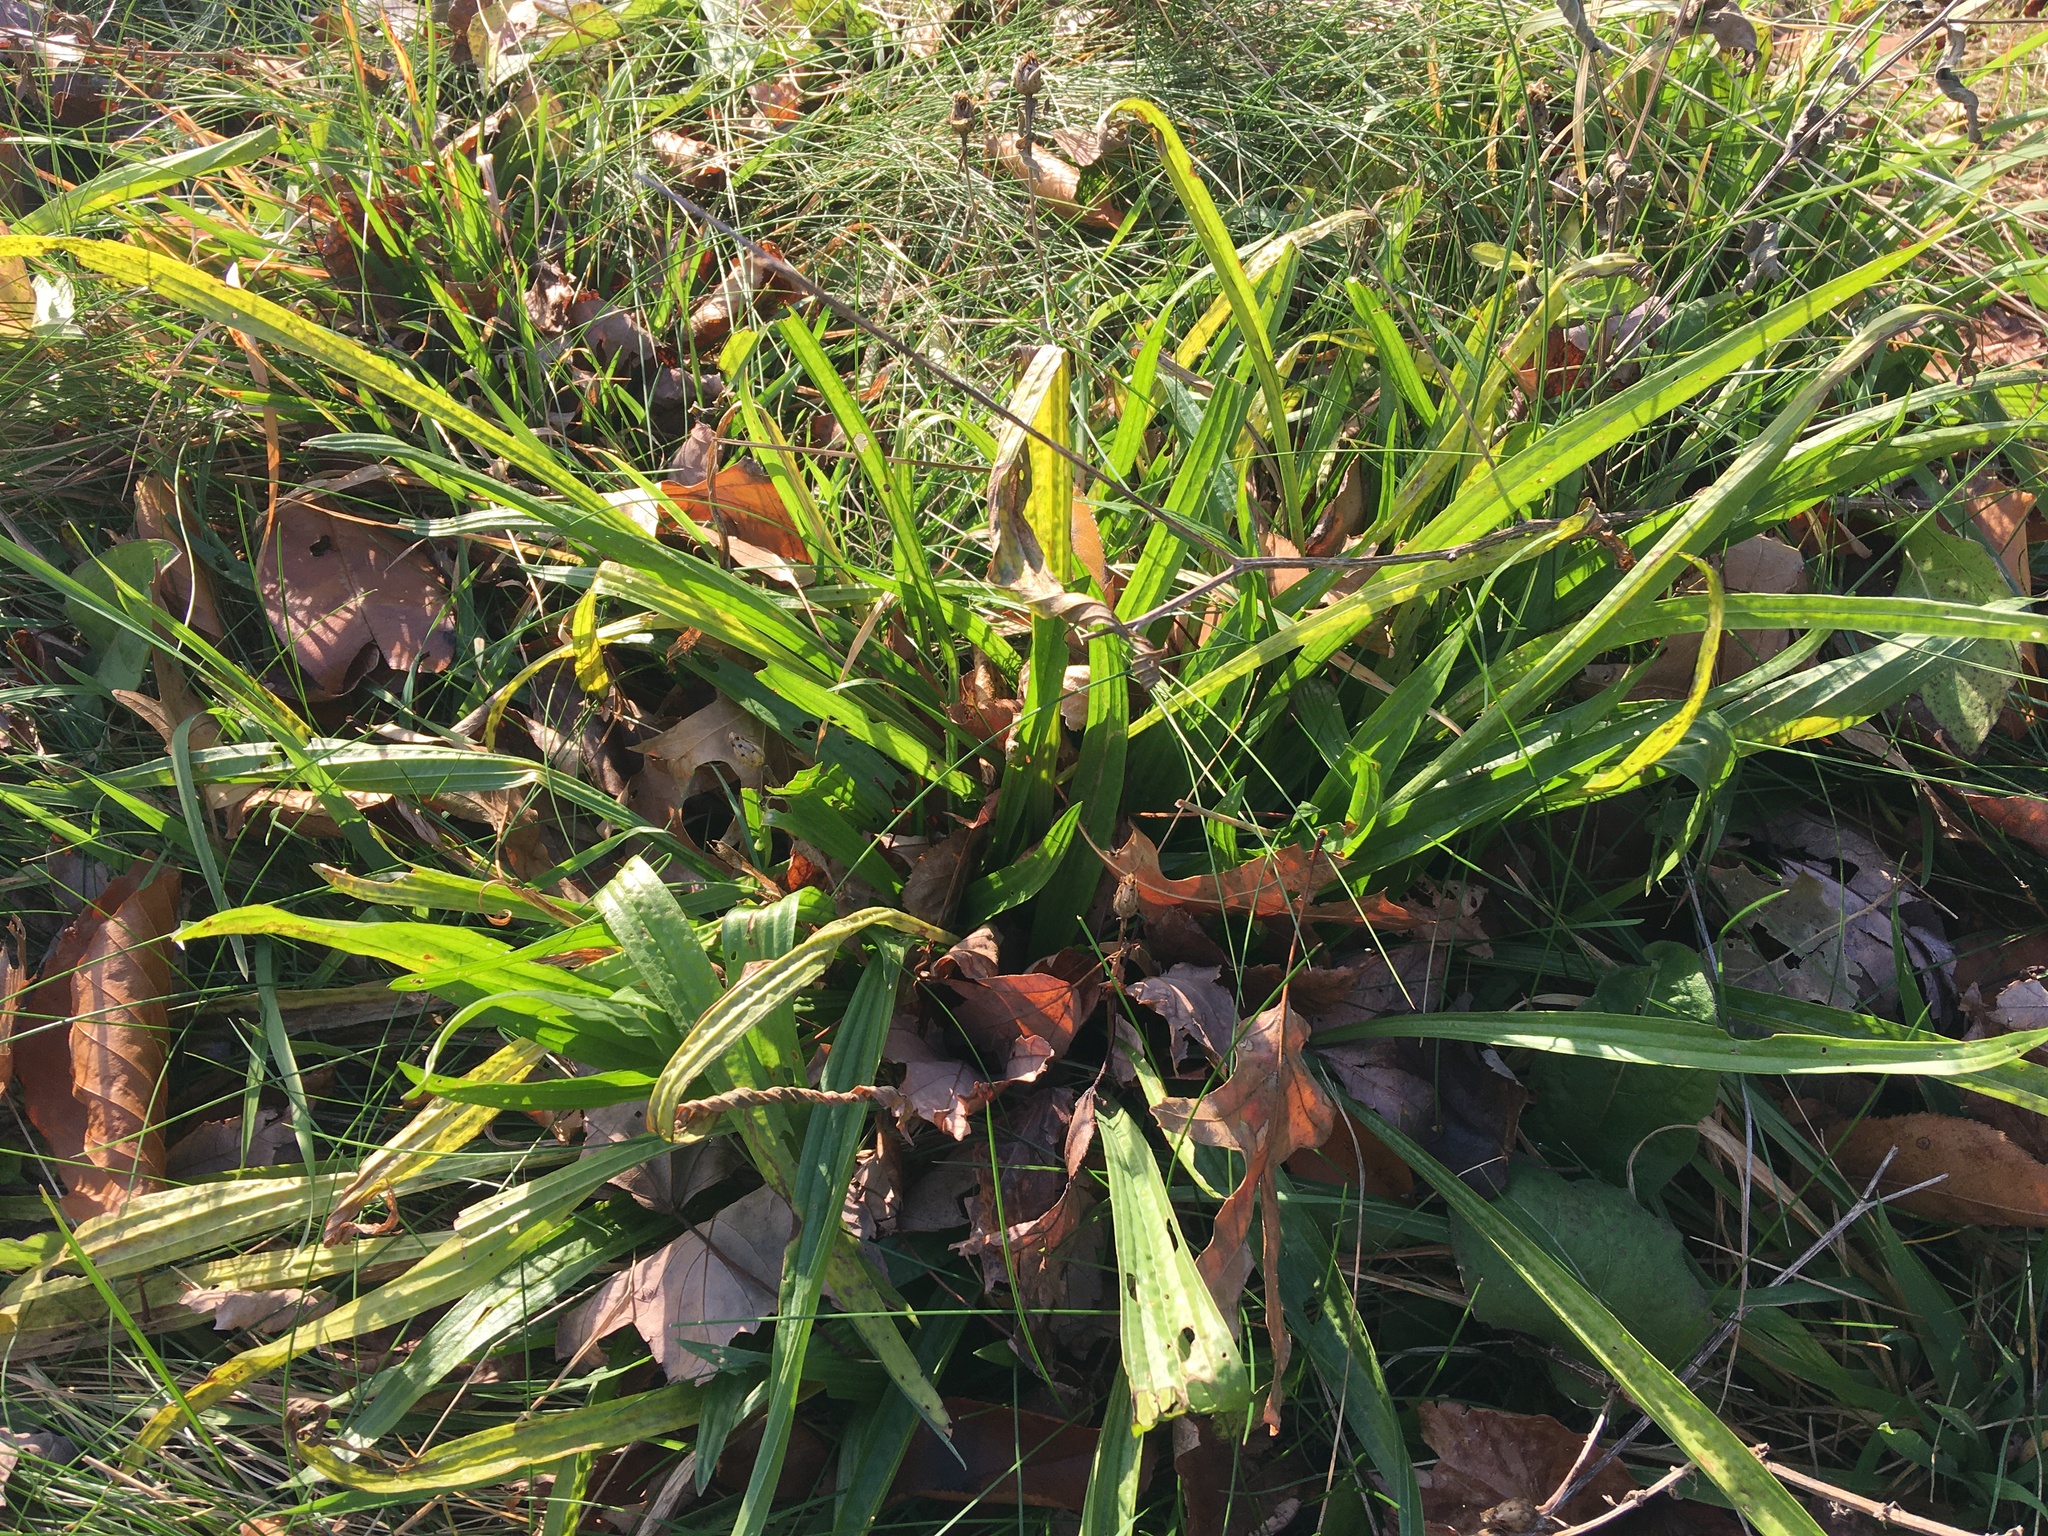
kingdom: Plantae
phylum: Tracheophyta
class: Magnoliopsida
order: Lamiales
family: Plantaginaceae
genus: Plantago
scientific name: Plantago lanceolata
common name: Ribwort plantain
